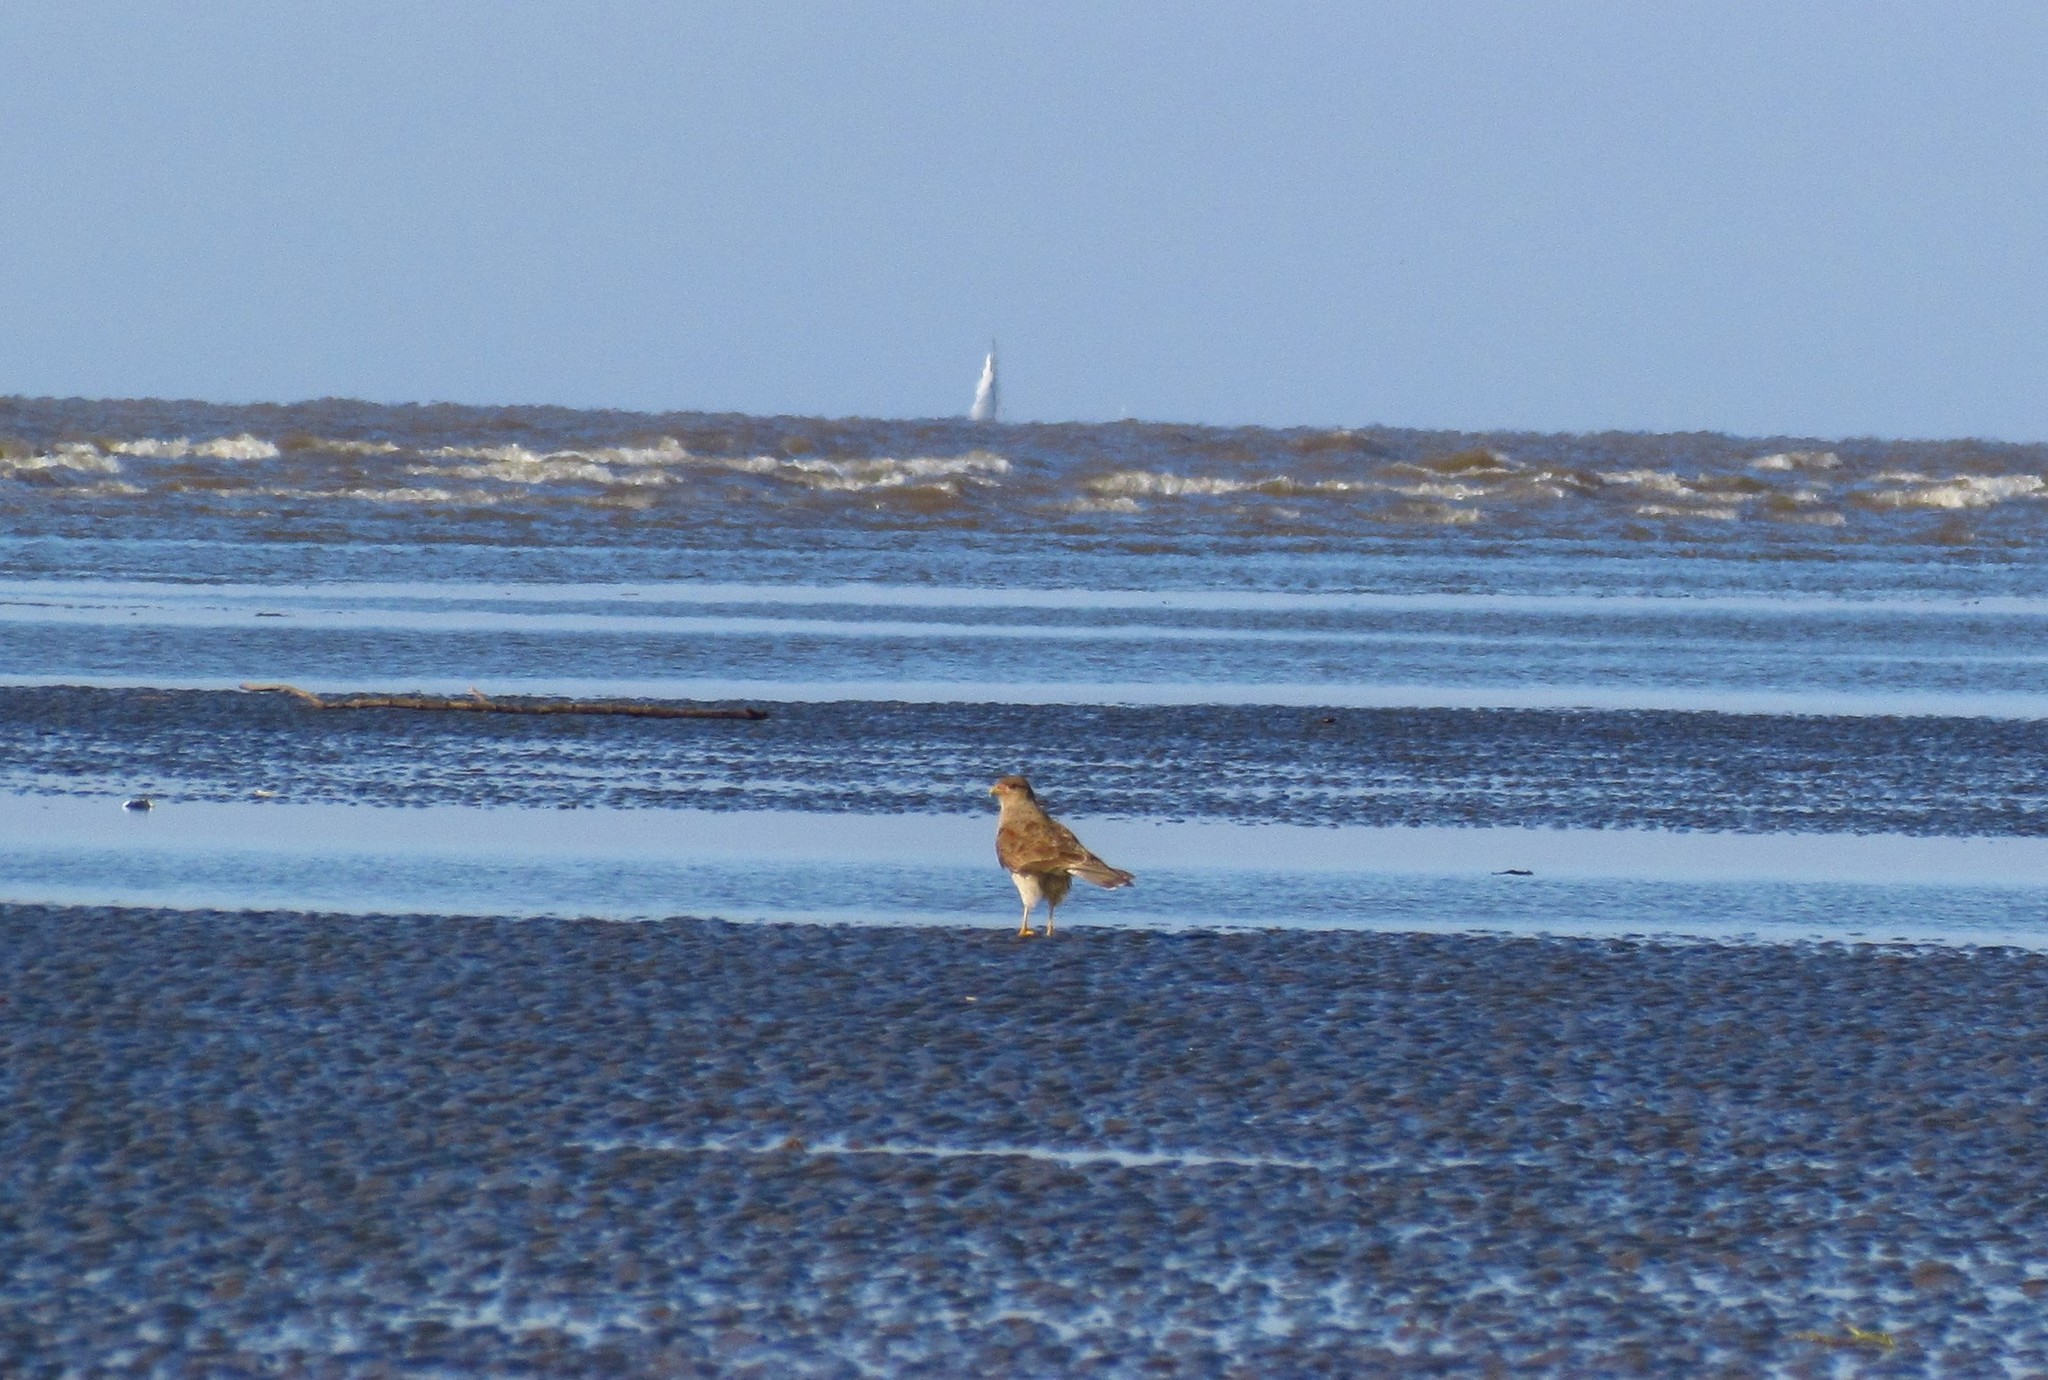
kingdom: Animalia
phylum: Chordata
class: Aves
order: Falconiformes
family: Falconidae
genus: Daptrius
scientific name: Daptrius
